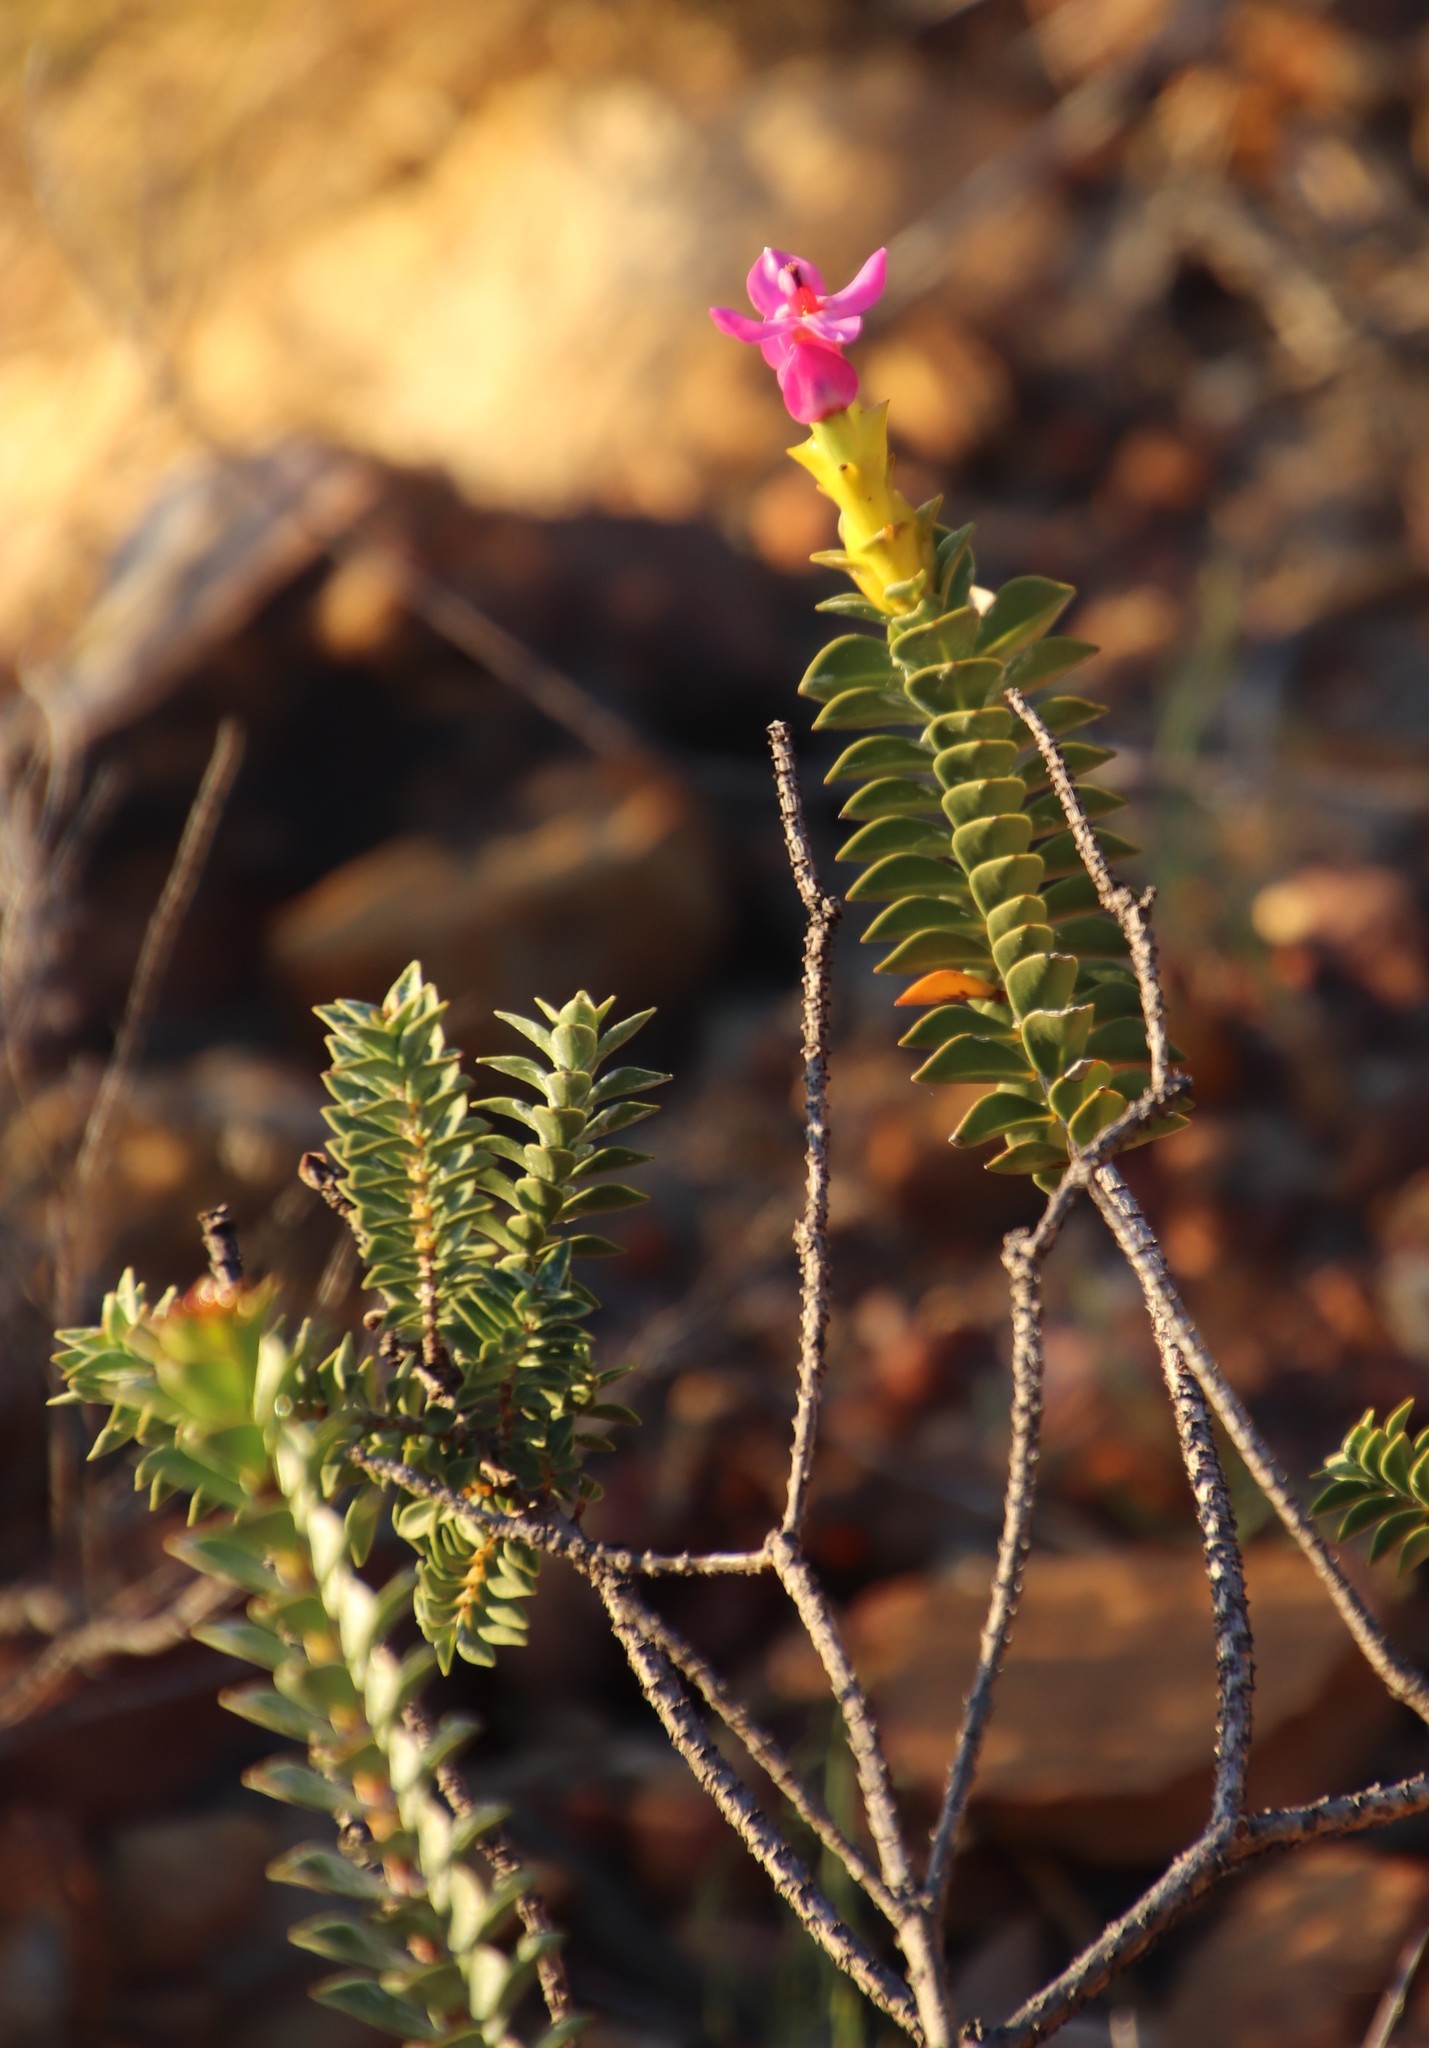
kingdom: Plantae
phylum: Tracheophyta
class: Magnoliopsida
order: Myrtales
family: Penaeaceae
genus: Saltera
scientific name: Saltera sarcocolla
